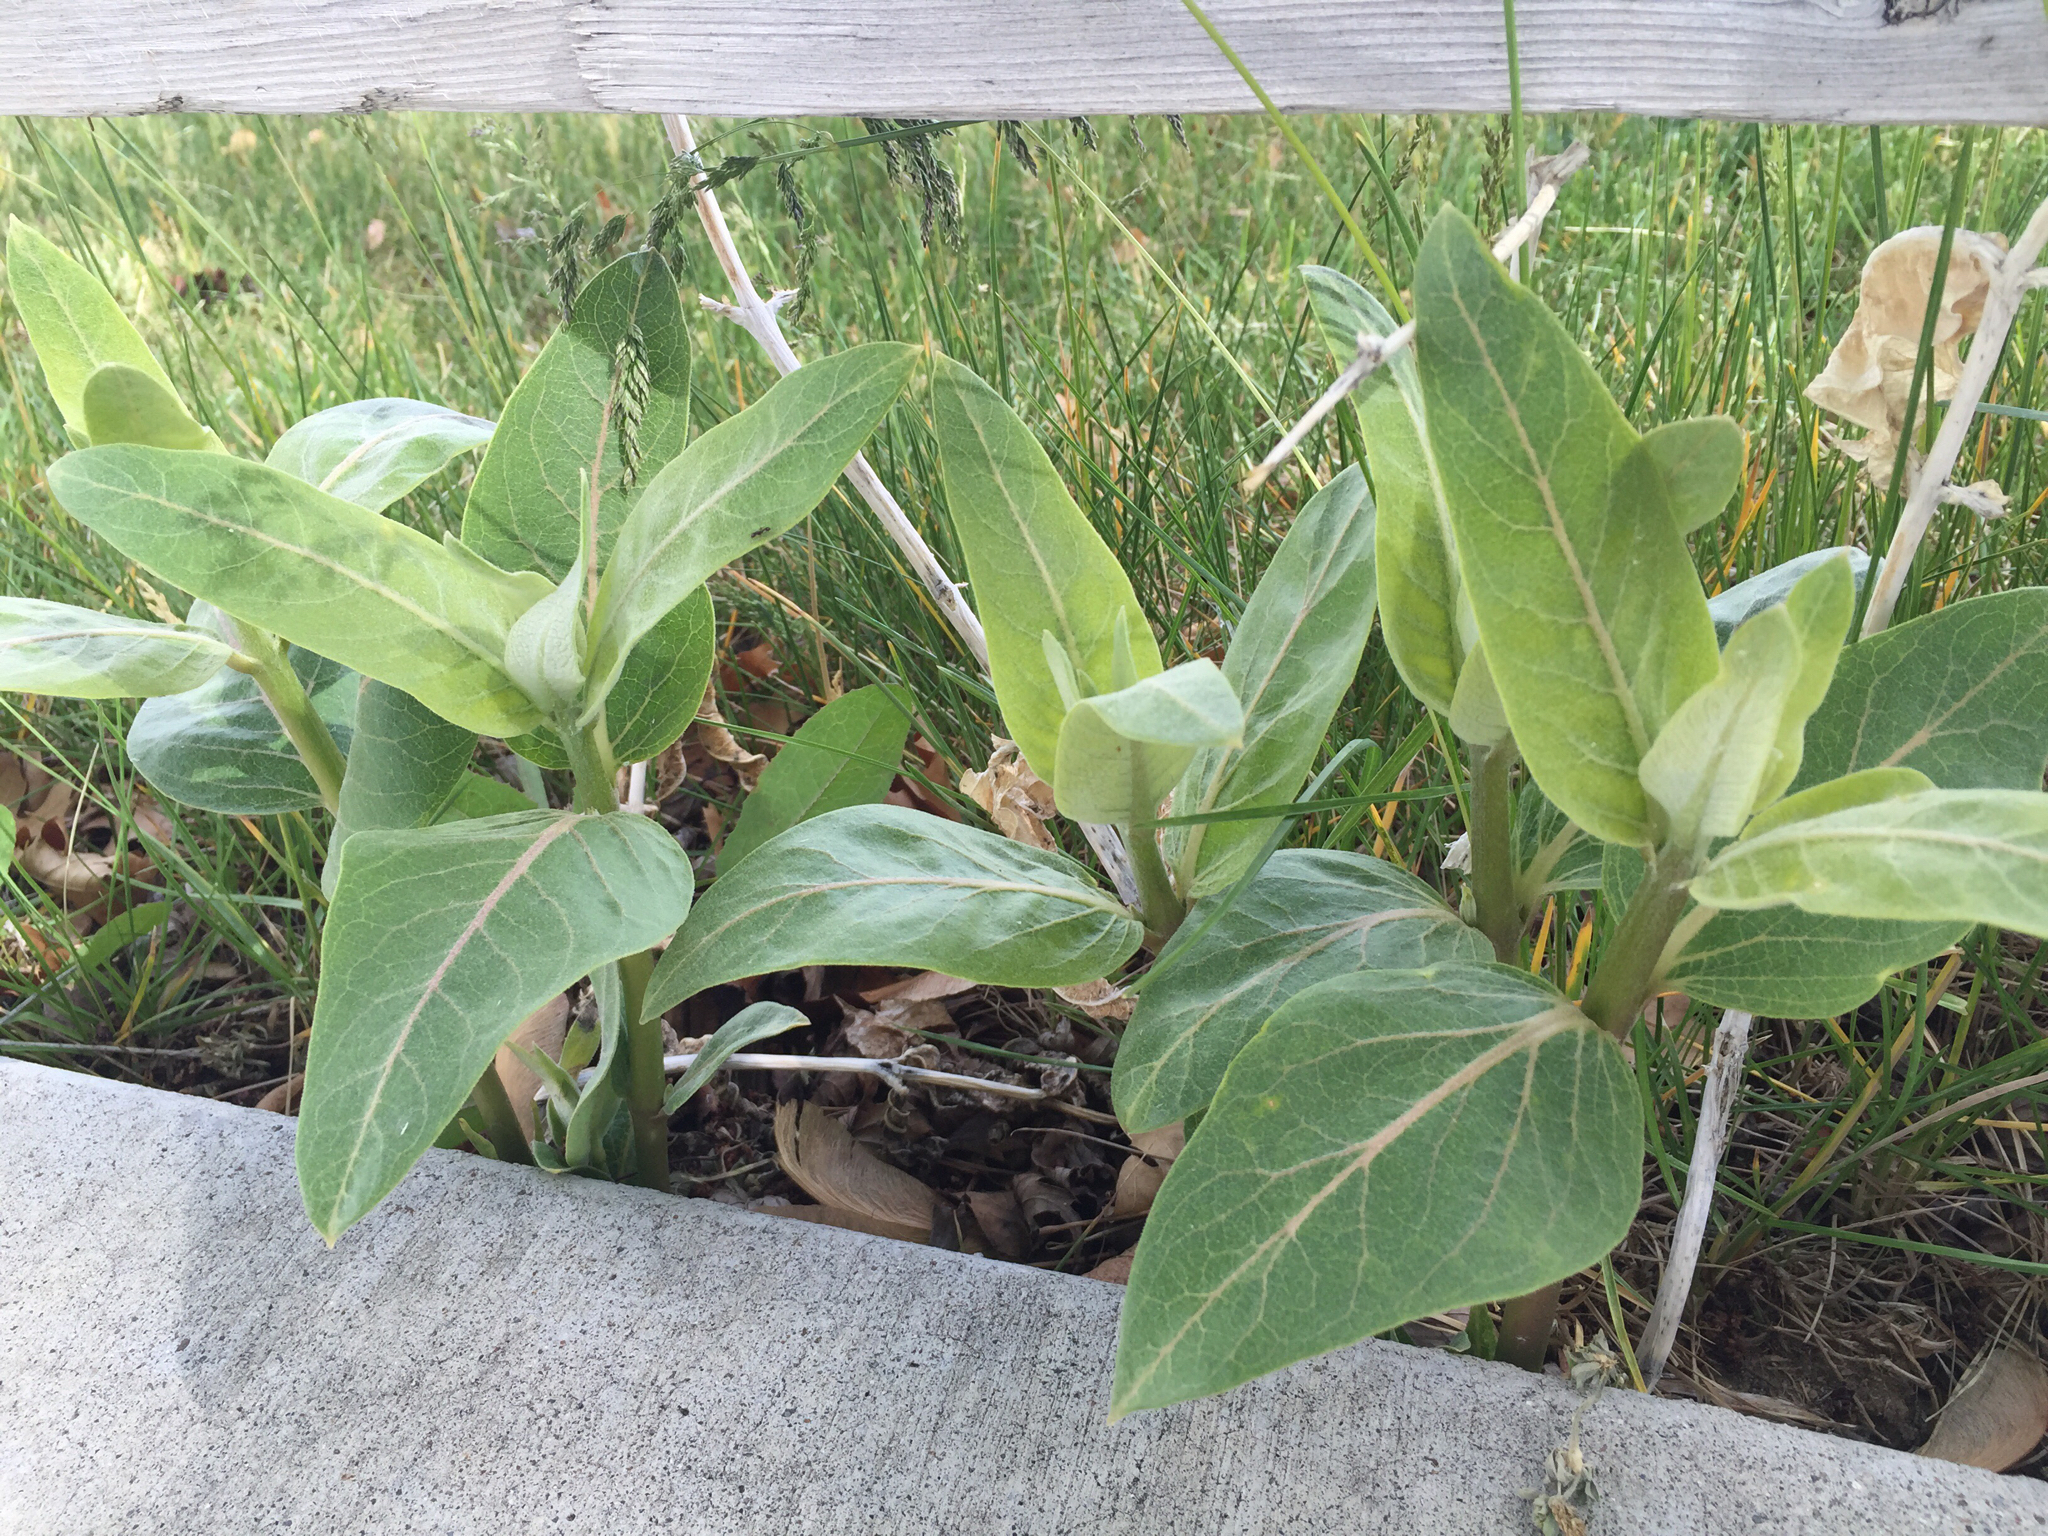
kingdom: Plantae
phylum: Tracheophyta
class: Magnoliopsida
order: Gentianales
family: Apocynaceae
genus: Asclepias
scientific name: Asclepias speciosa
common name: Showy milkweed
